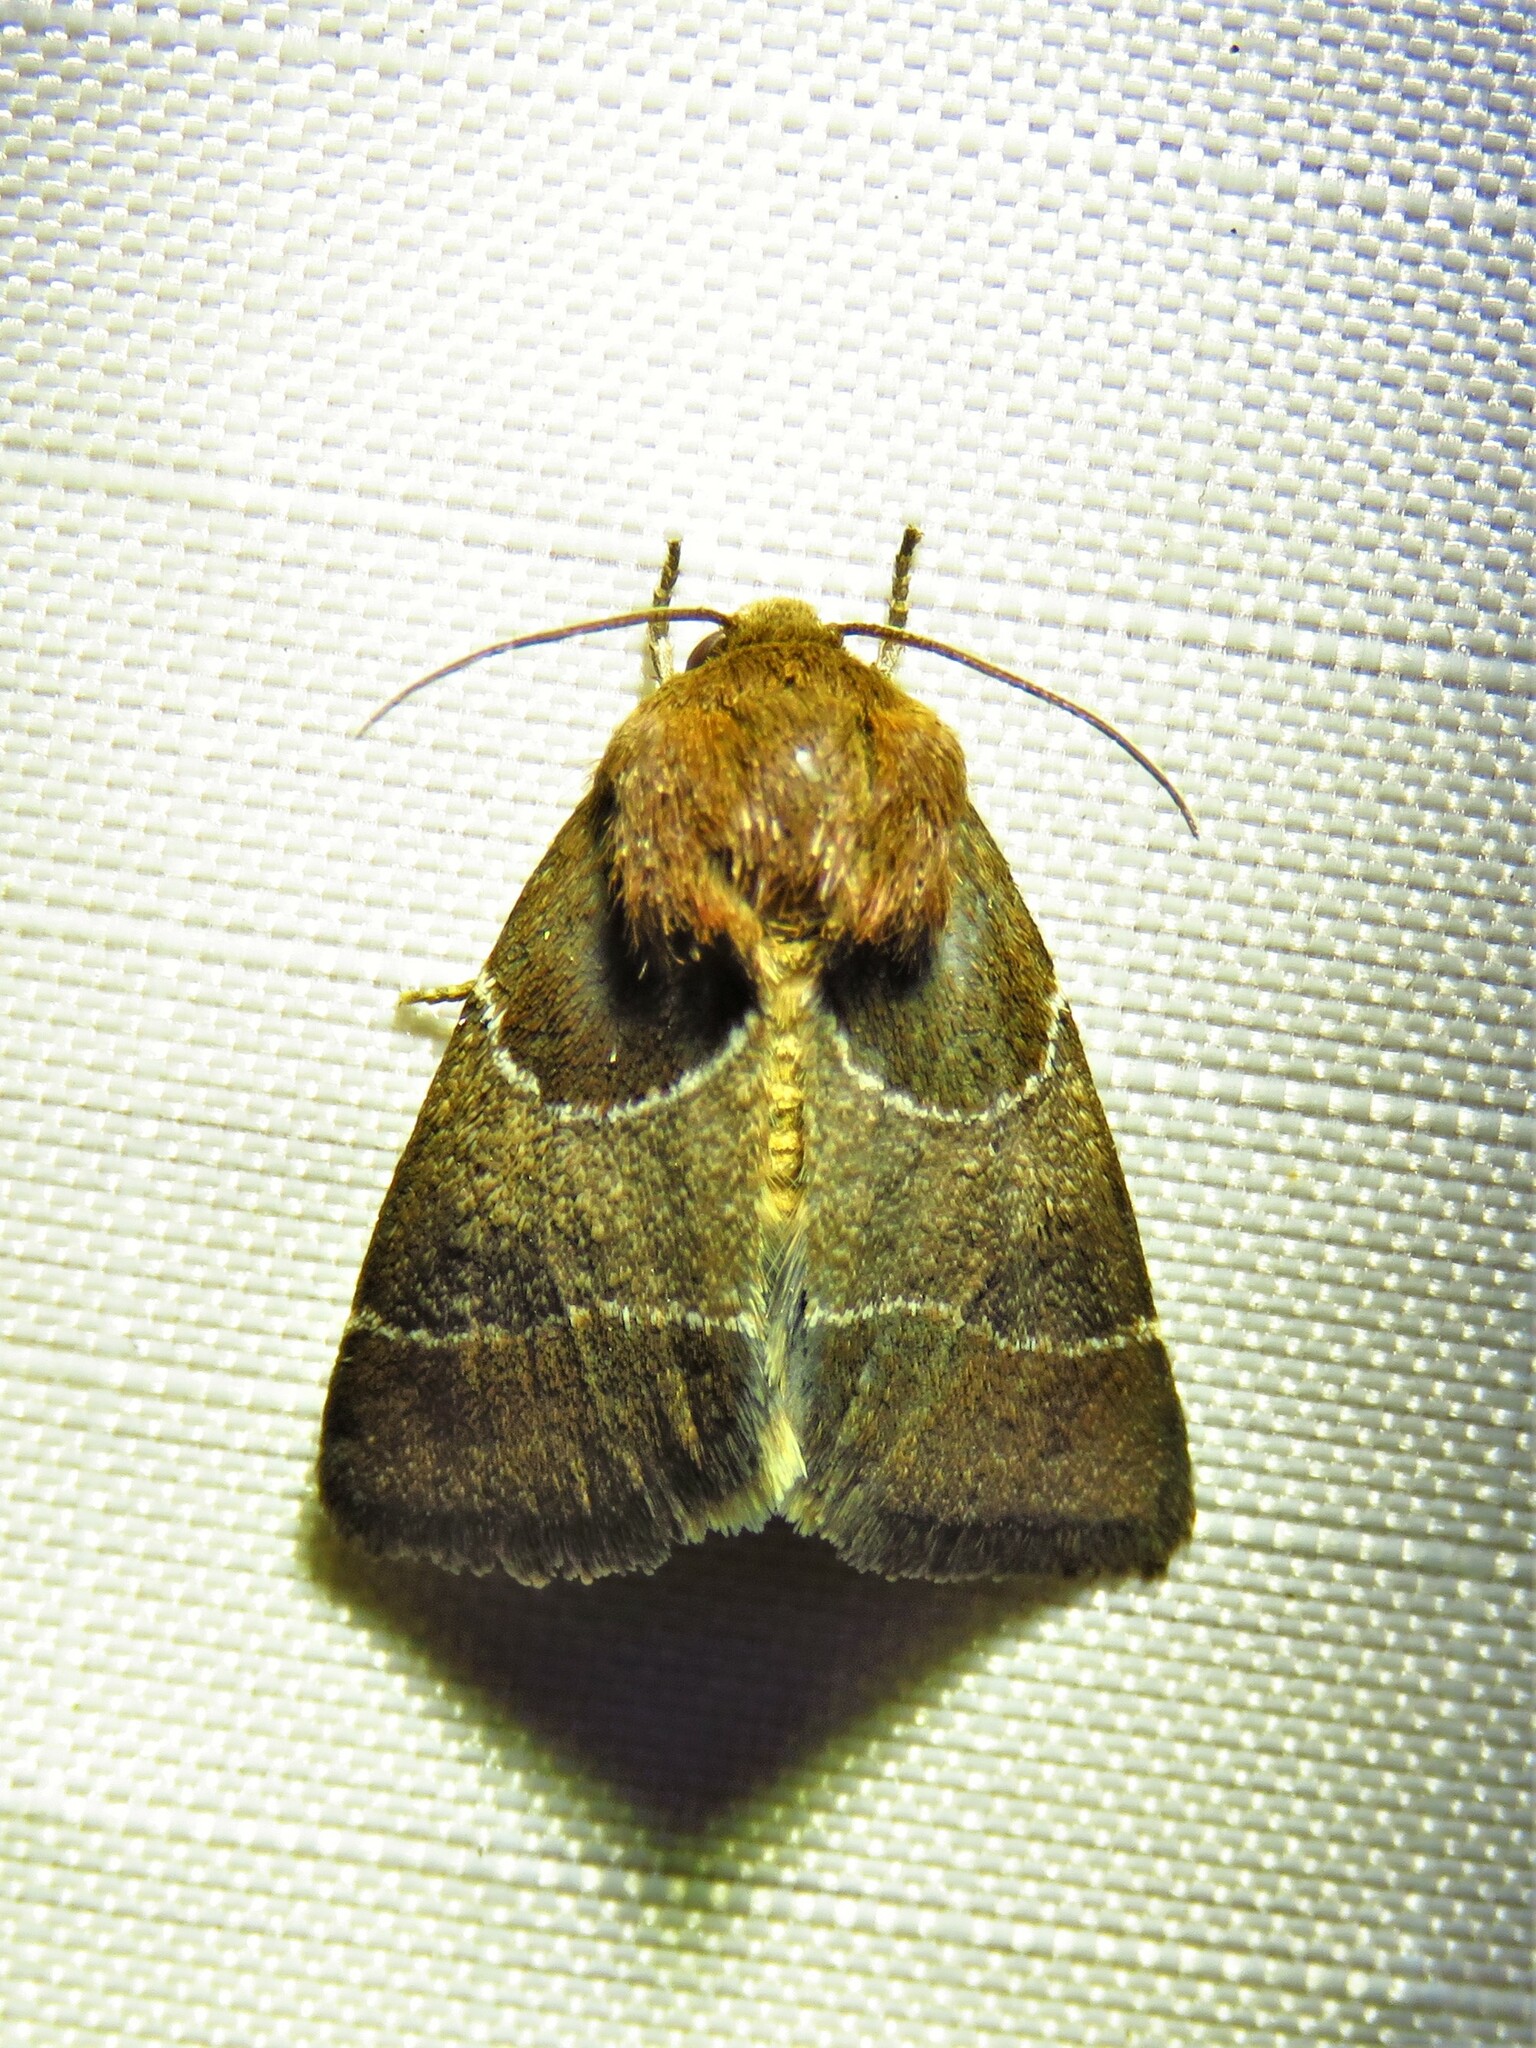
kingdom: Animalia
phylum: Arthropoda
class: Insecta
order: Lepidoptera
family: Noctuidae
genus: Schinia
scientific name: Schinia arcigera
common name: Arcigera flower moth
